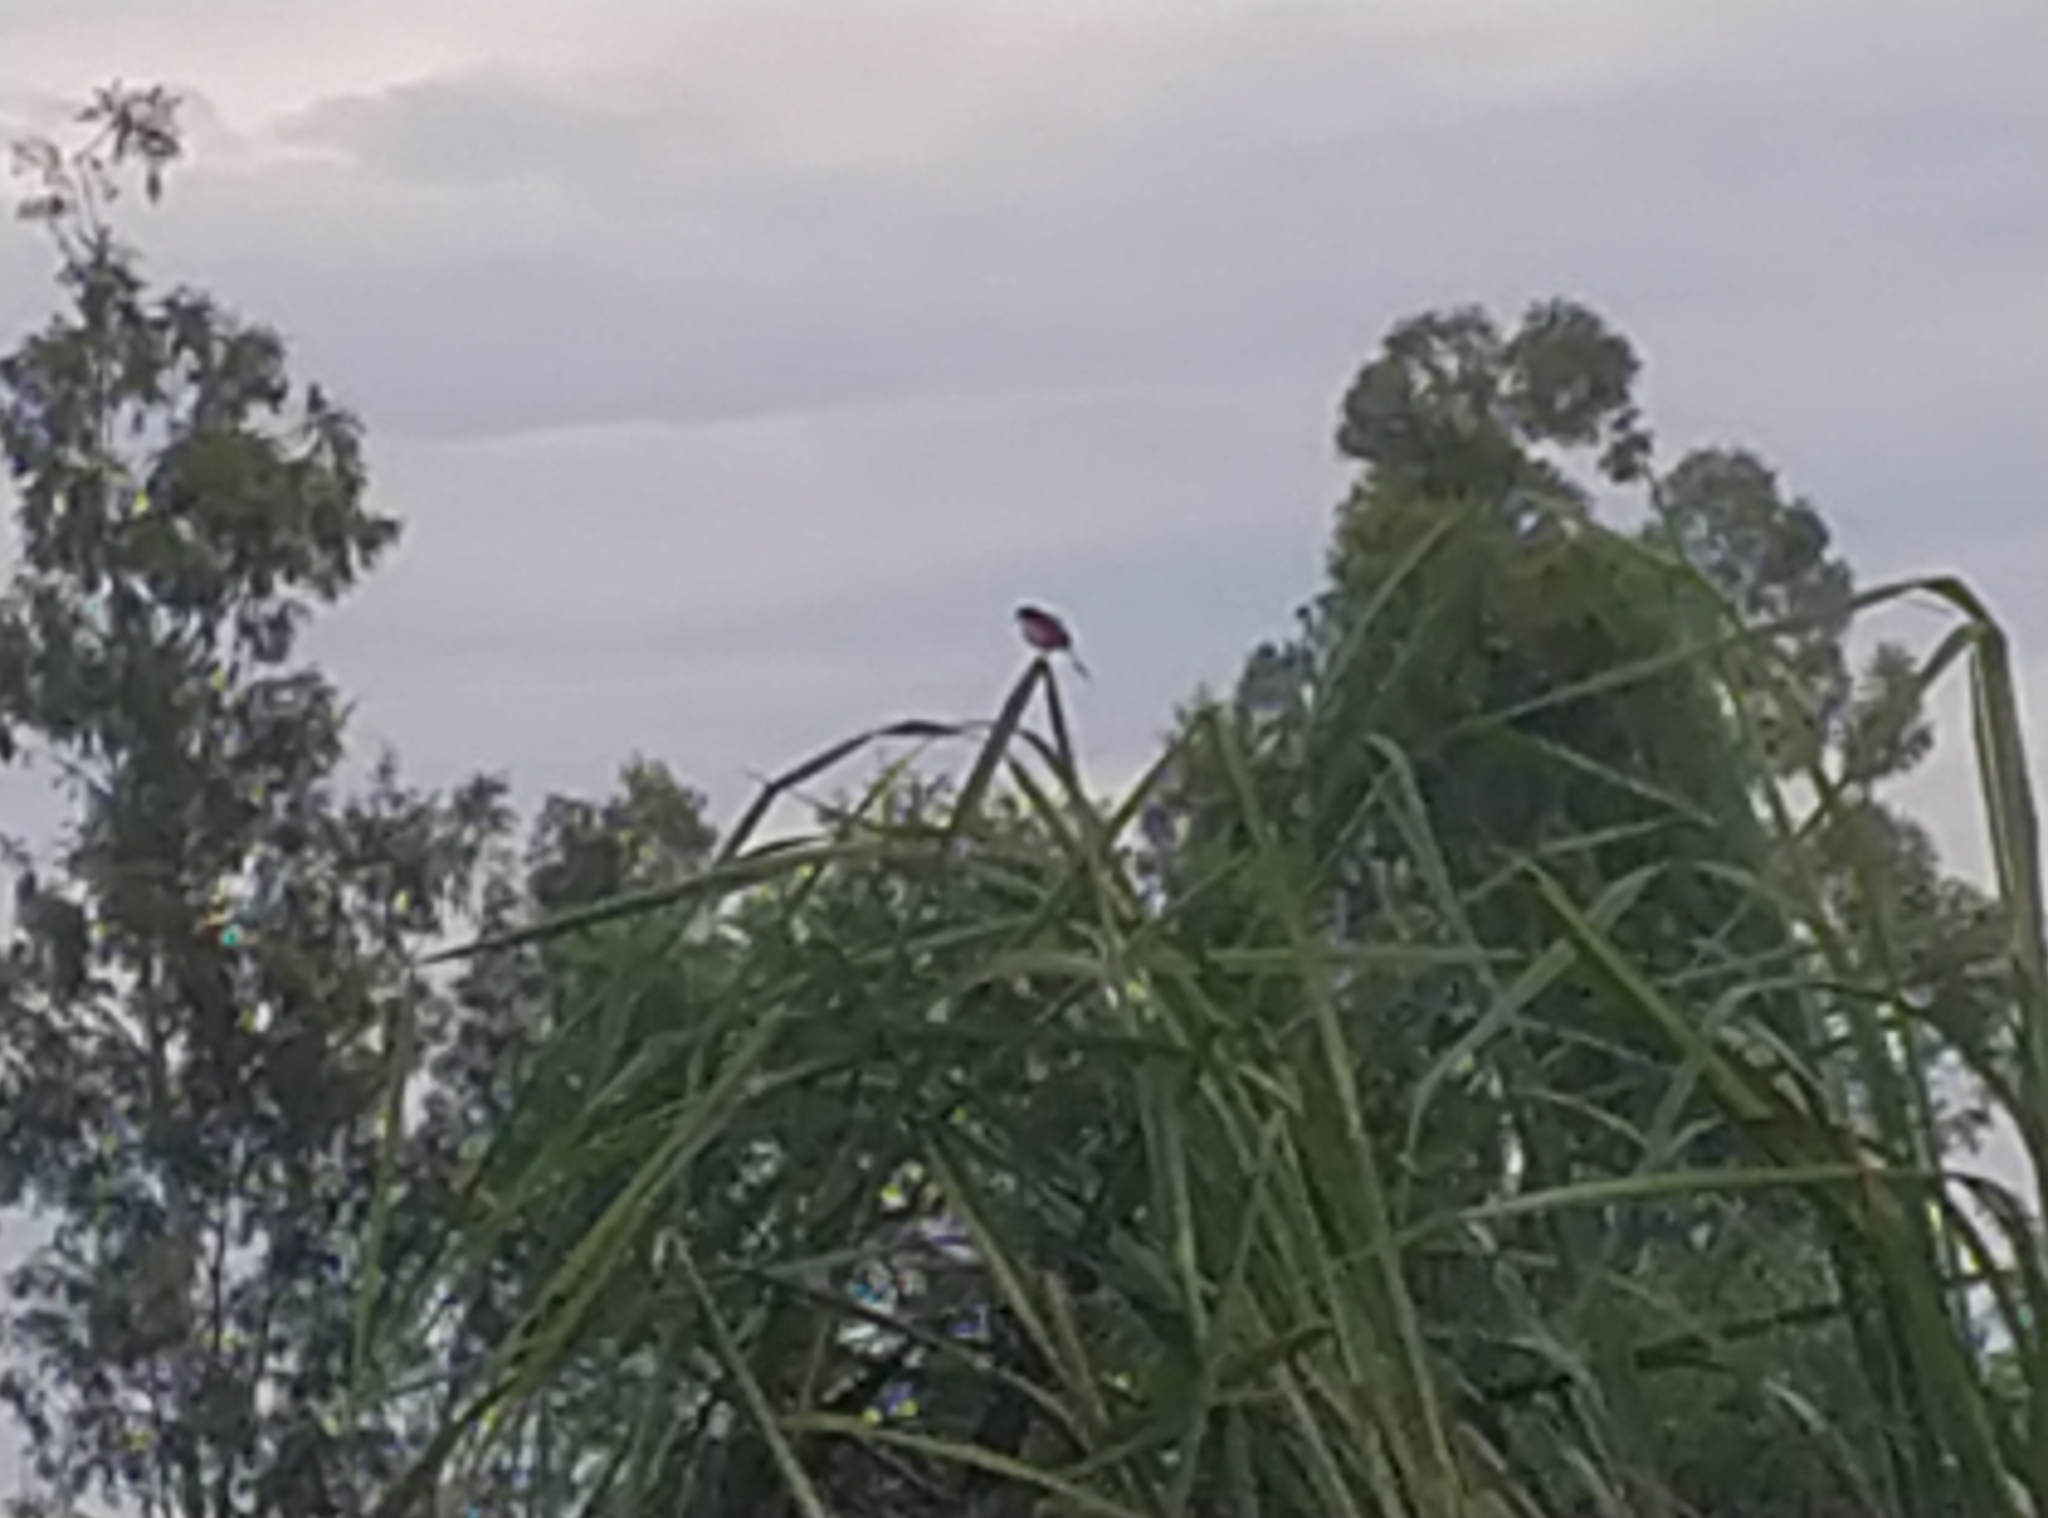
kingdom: Animalia
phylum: Chordata
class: Aves
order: Passeriformes
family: Cisticolidae
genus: Prinia
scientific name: Prinia socialis
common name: Ashy prinia
